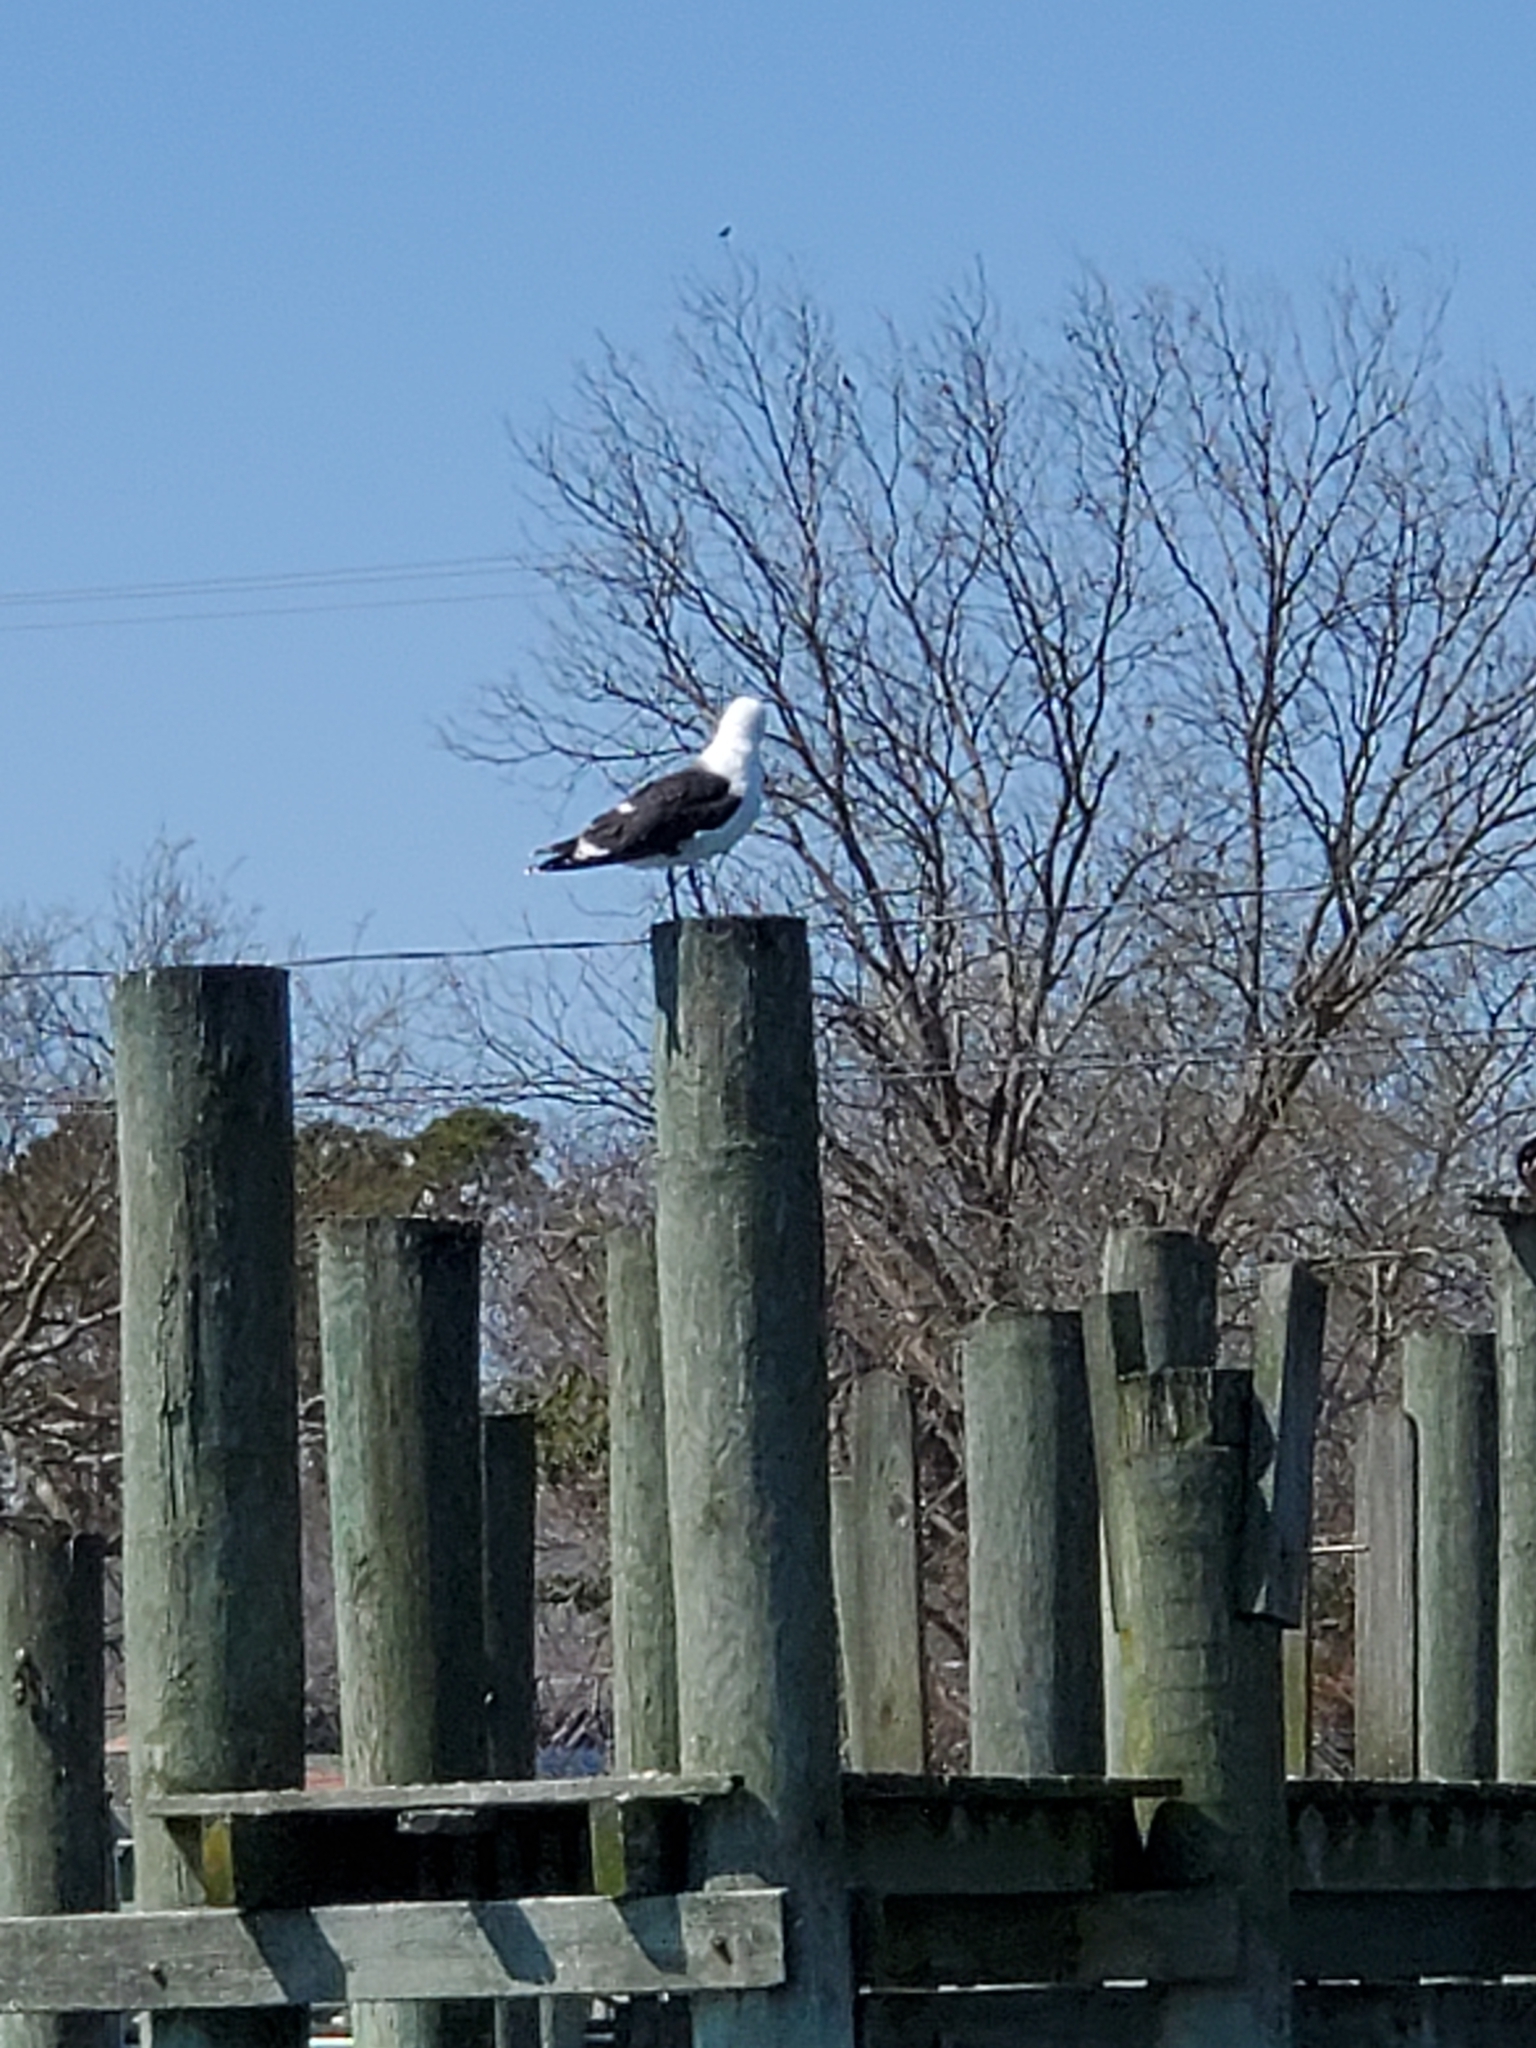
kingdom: Animalia
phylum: Chordata
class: Aves
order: Charadriiformes
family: Laridae
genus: Larus
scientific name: Larus marinus
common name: Great black-backed gull
